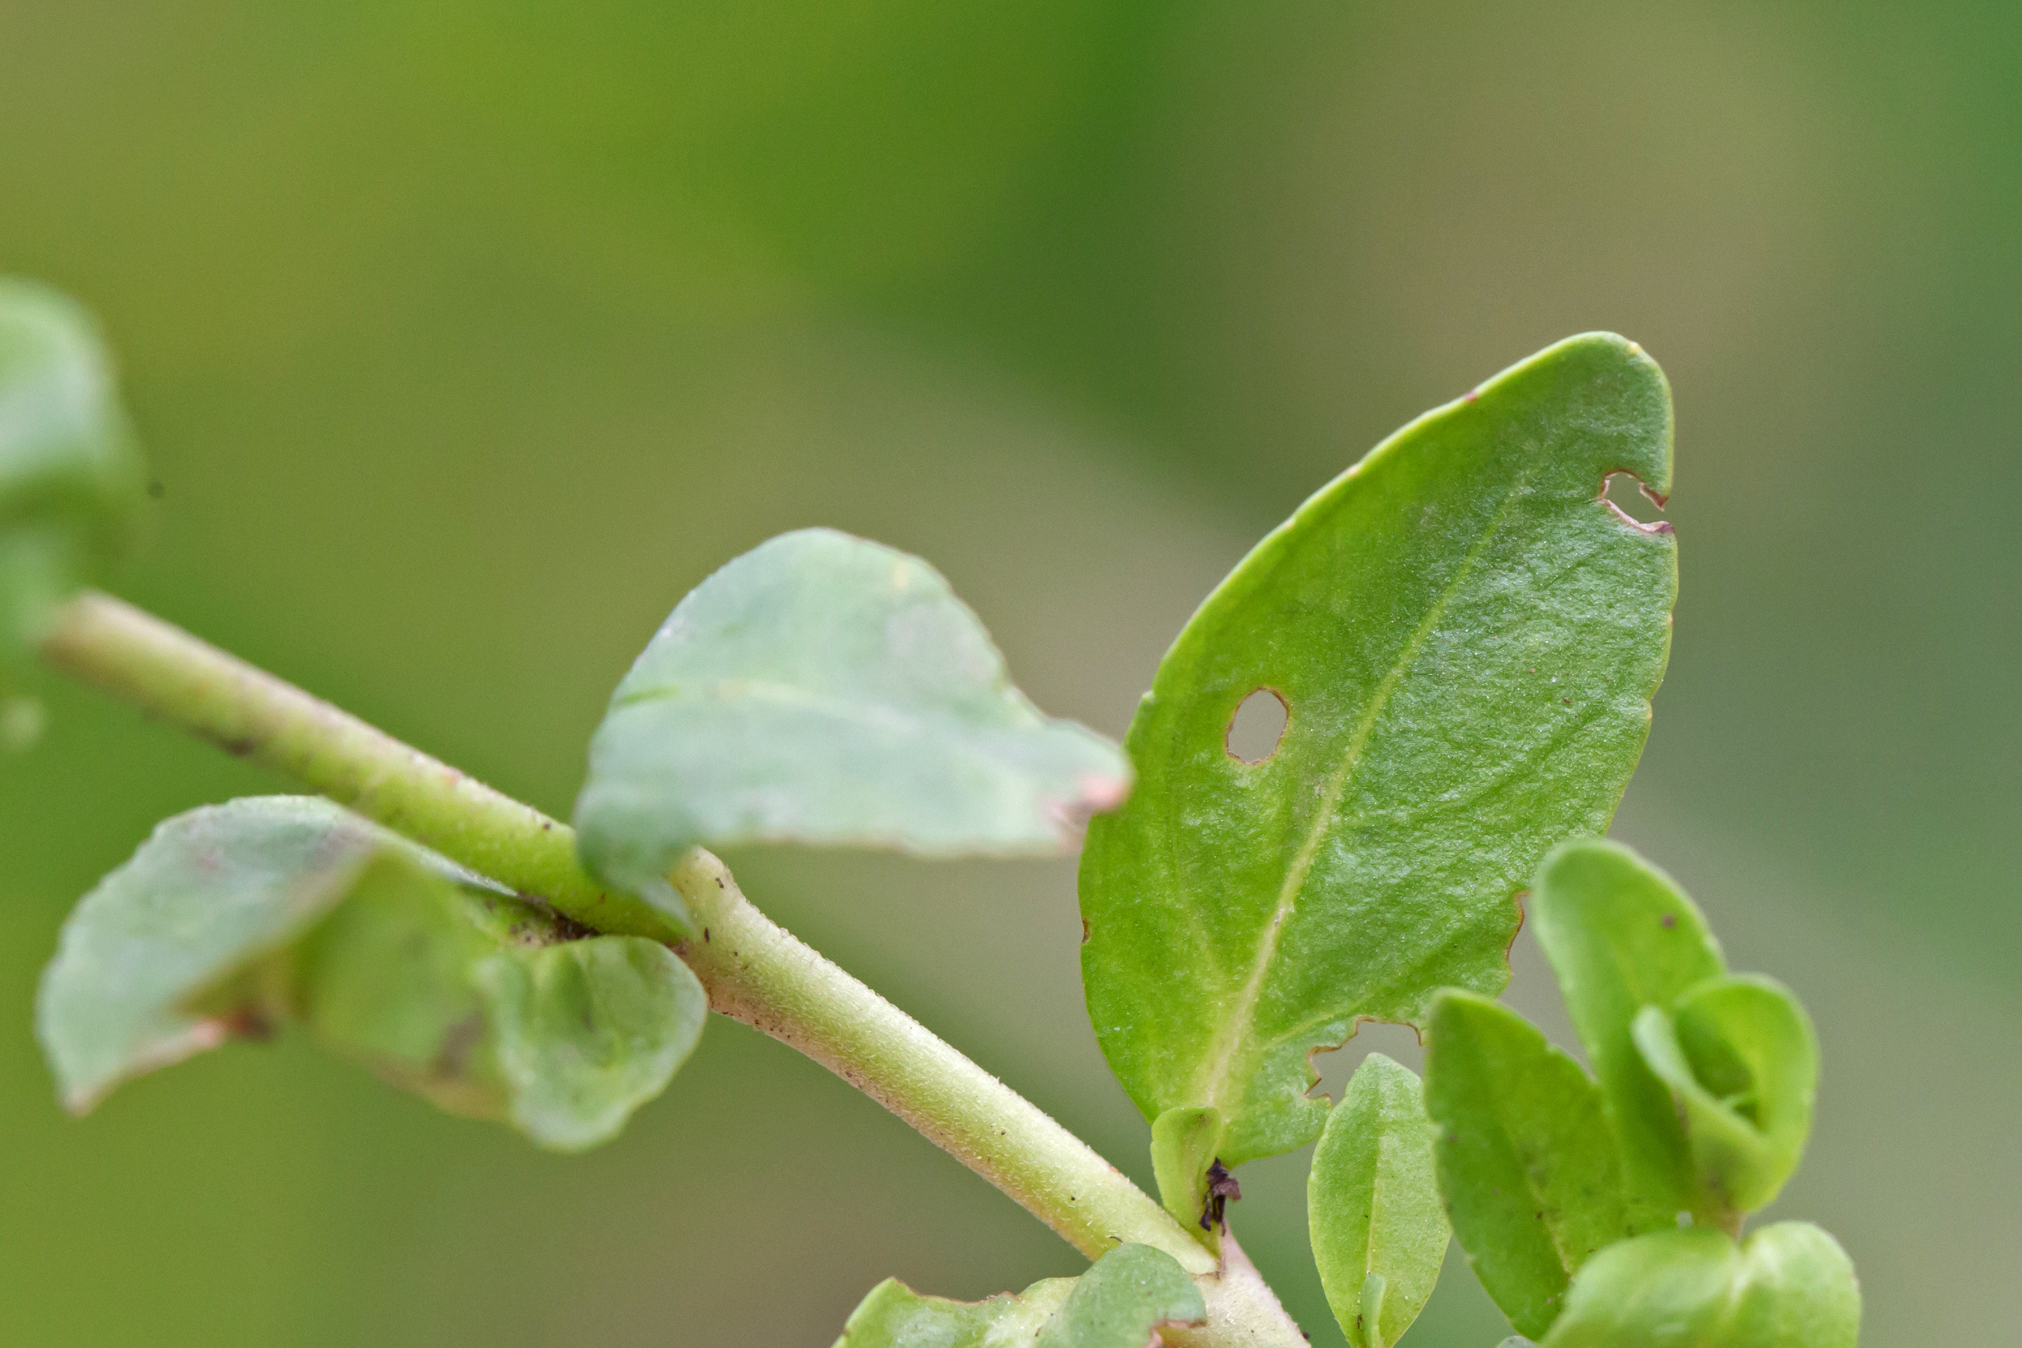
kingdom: Plantae
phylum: Tracheophyta
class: Magnoliopsida
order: Lamiales
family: Plantaginaceae
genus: Veronica
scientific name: Veronica serpyllifolia
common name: Thyme-leaved speedwell
